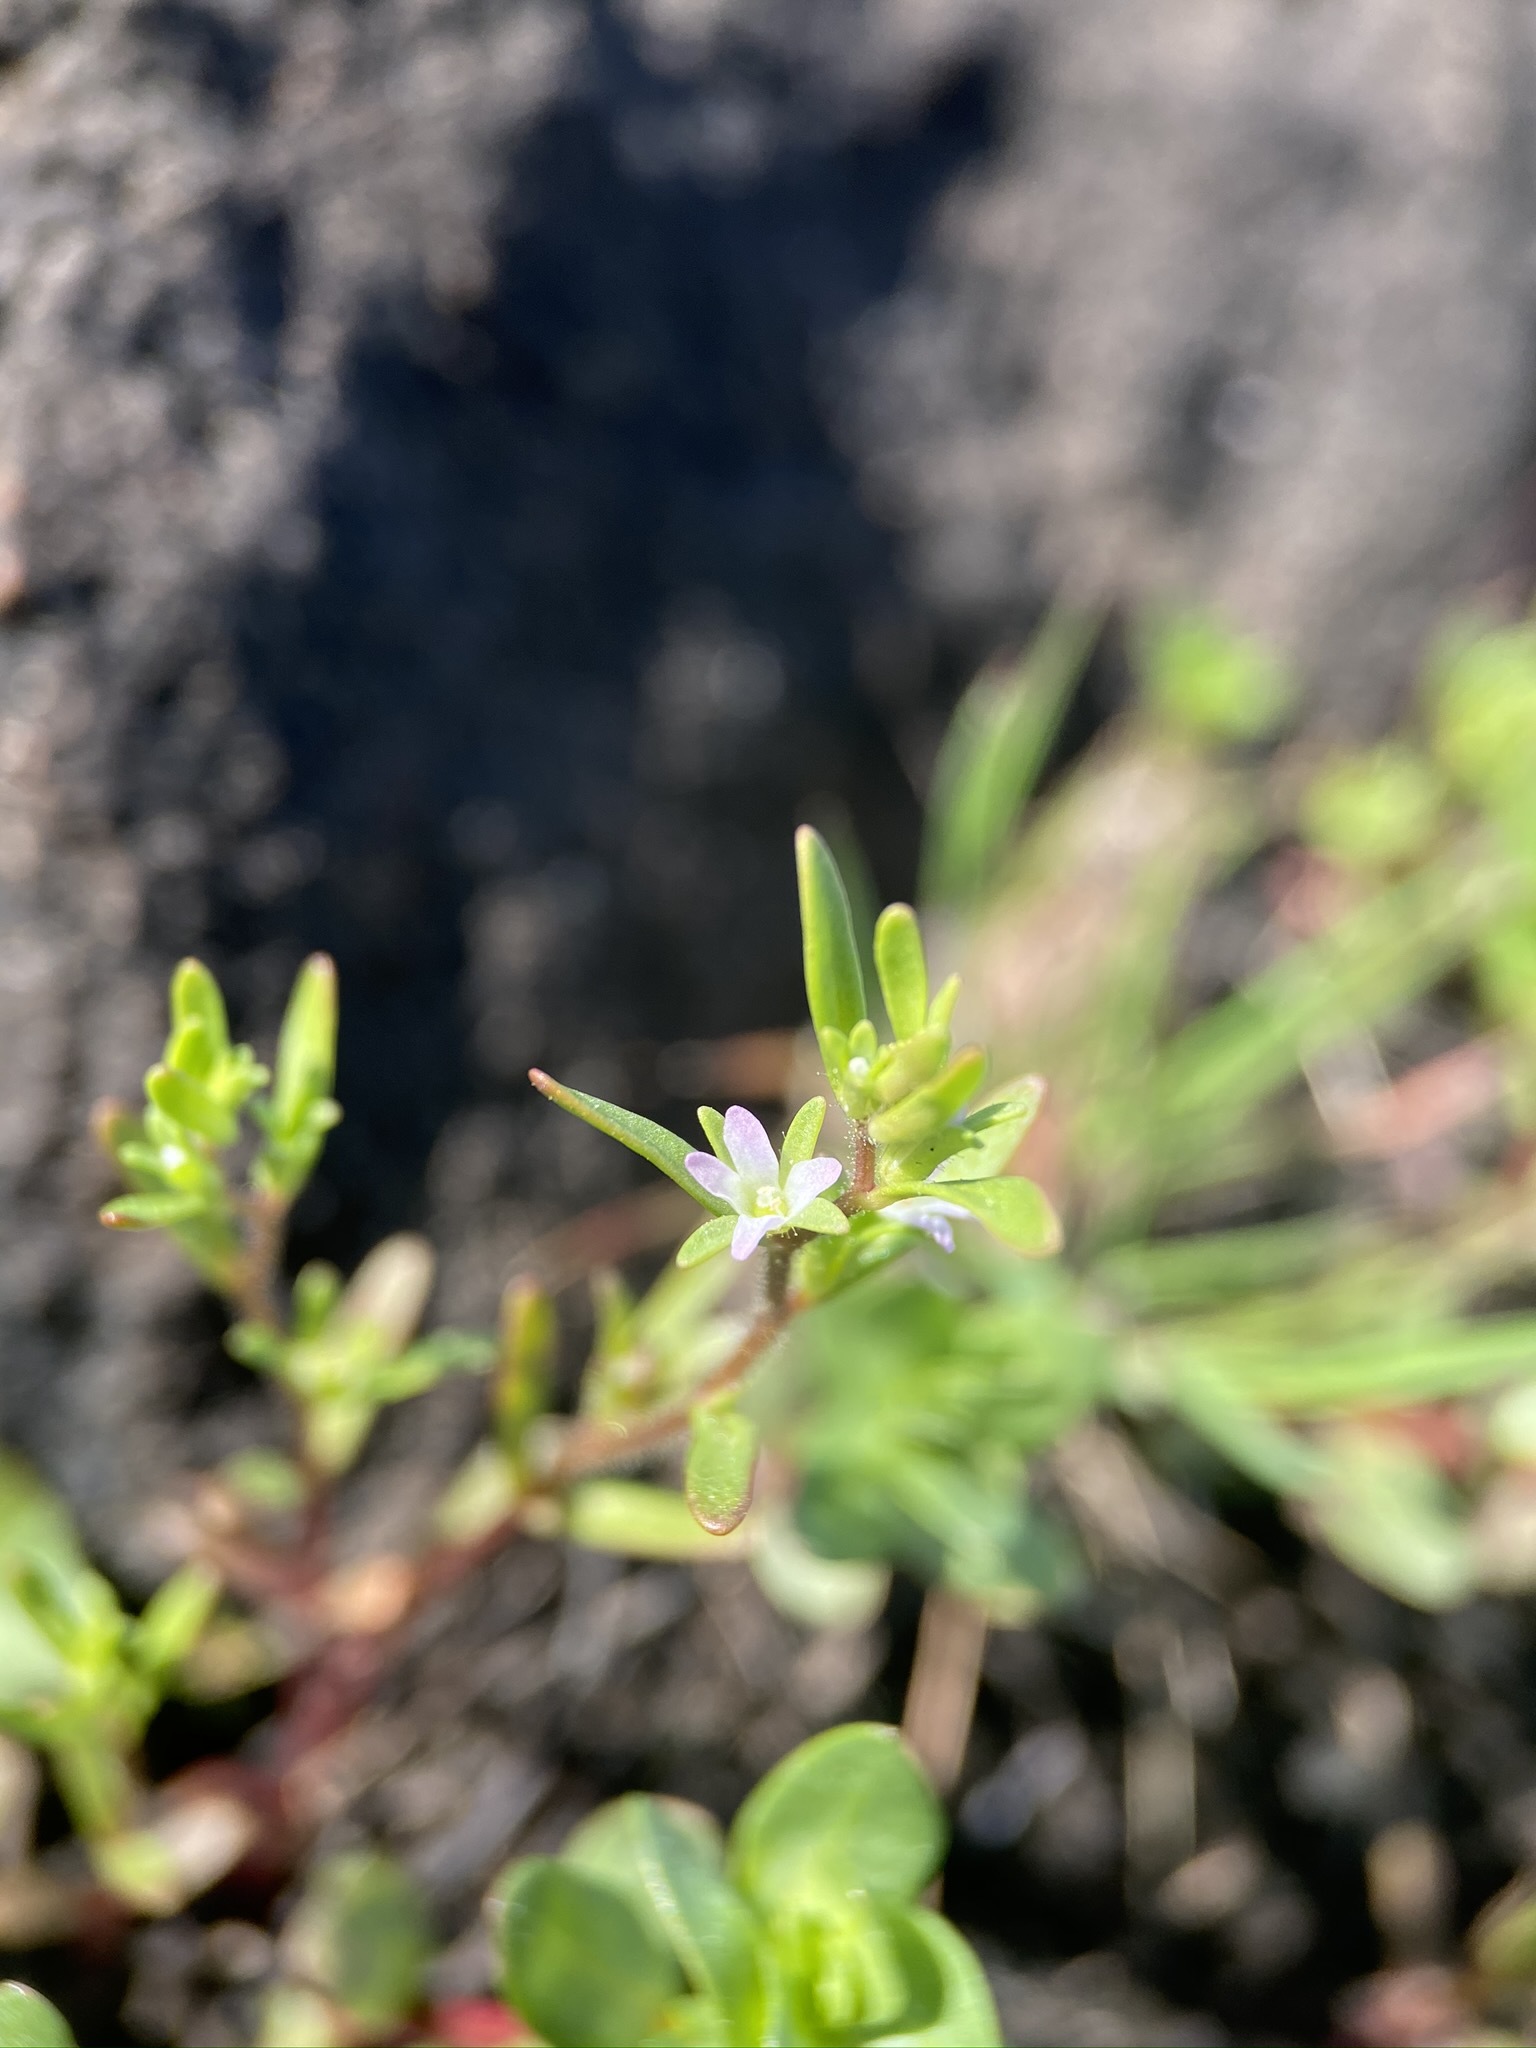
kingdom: Plantae
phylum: Tracheophyta
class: Magnoliopsida
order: Lamiales
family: Plantaginaceae
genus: Veronica
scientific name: Veronica peregrina
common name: Neckweed
